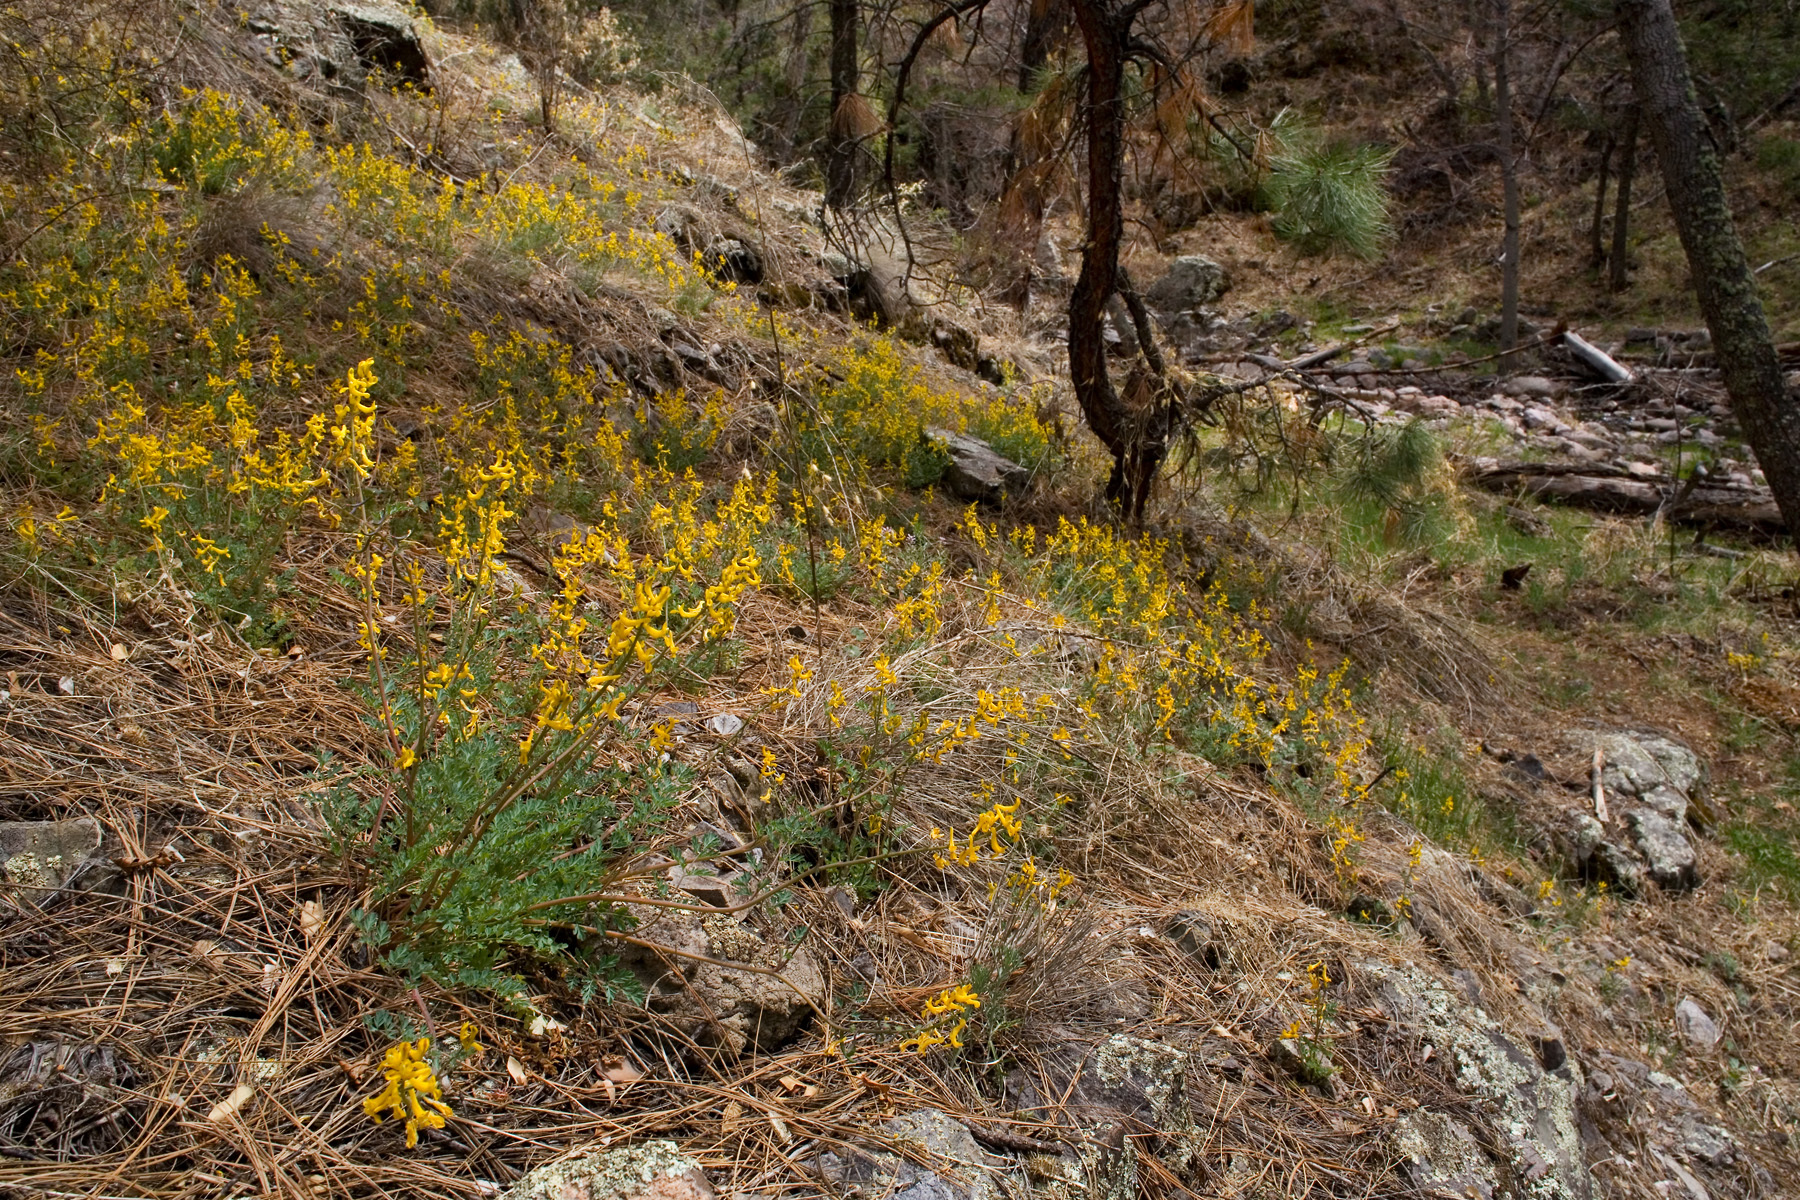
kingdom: Plantae
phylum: Tracheophyta
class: Magnoliopsida
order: Ranunculales
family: Papaveraceae
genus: Corydalis
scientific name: Corydalis aurea
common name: Golden corydalis
